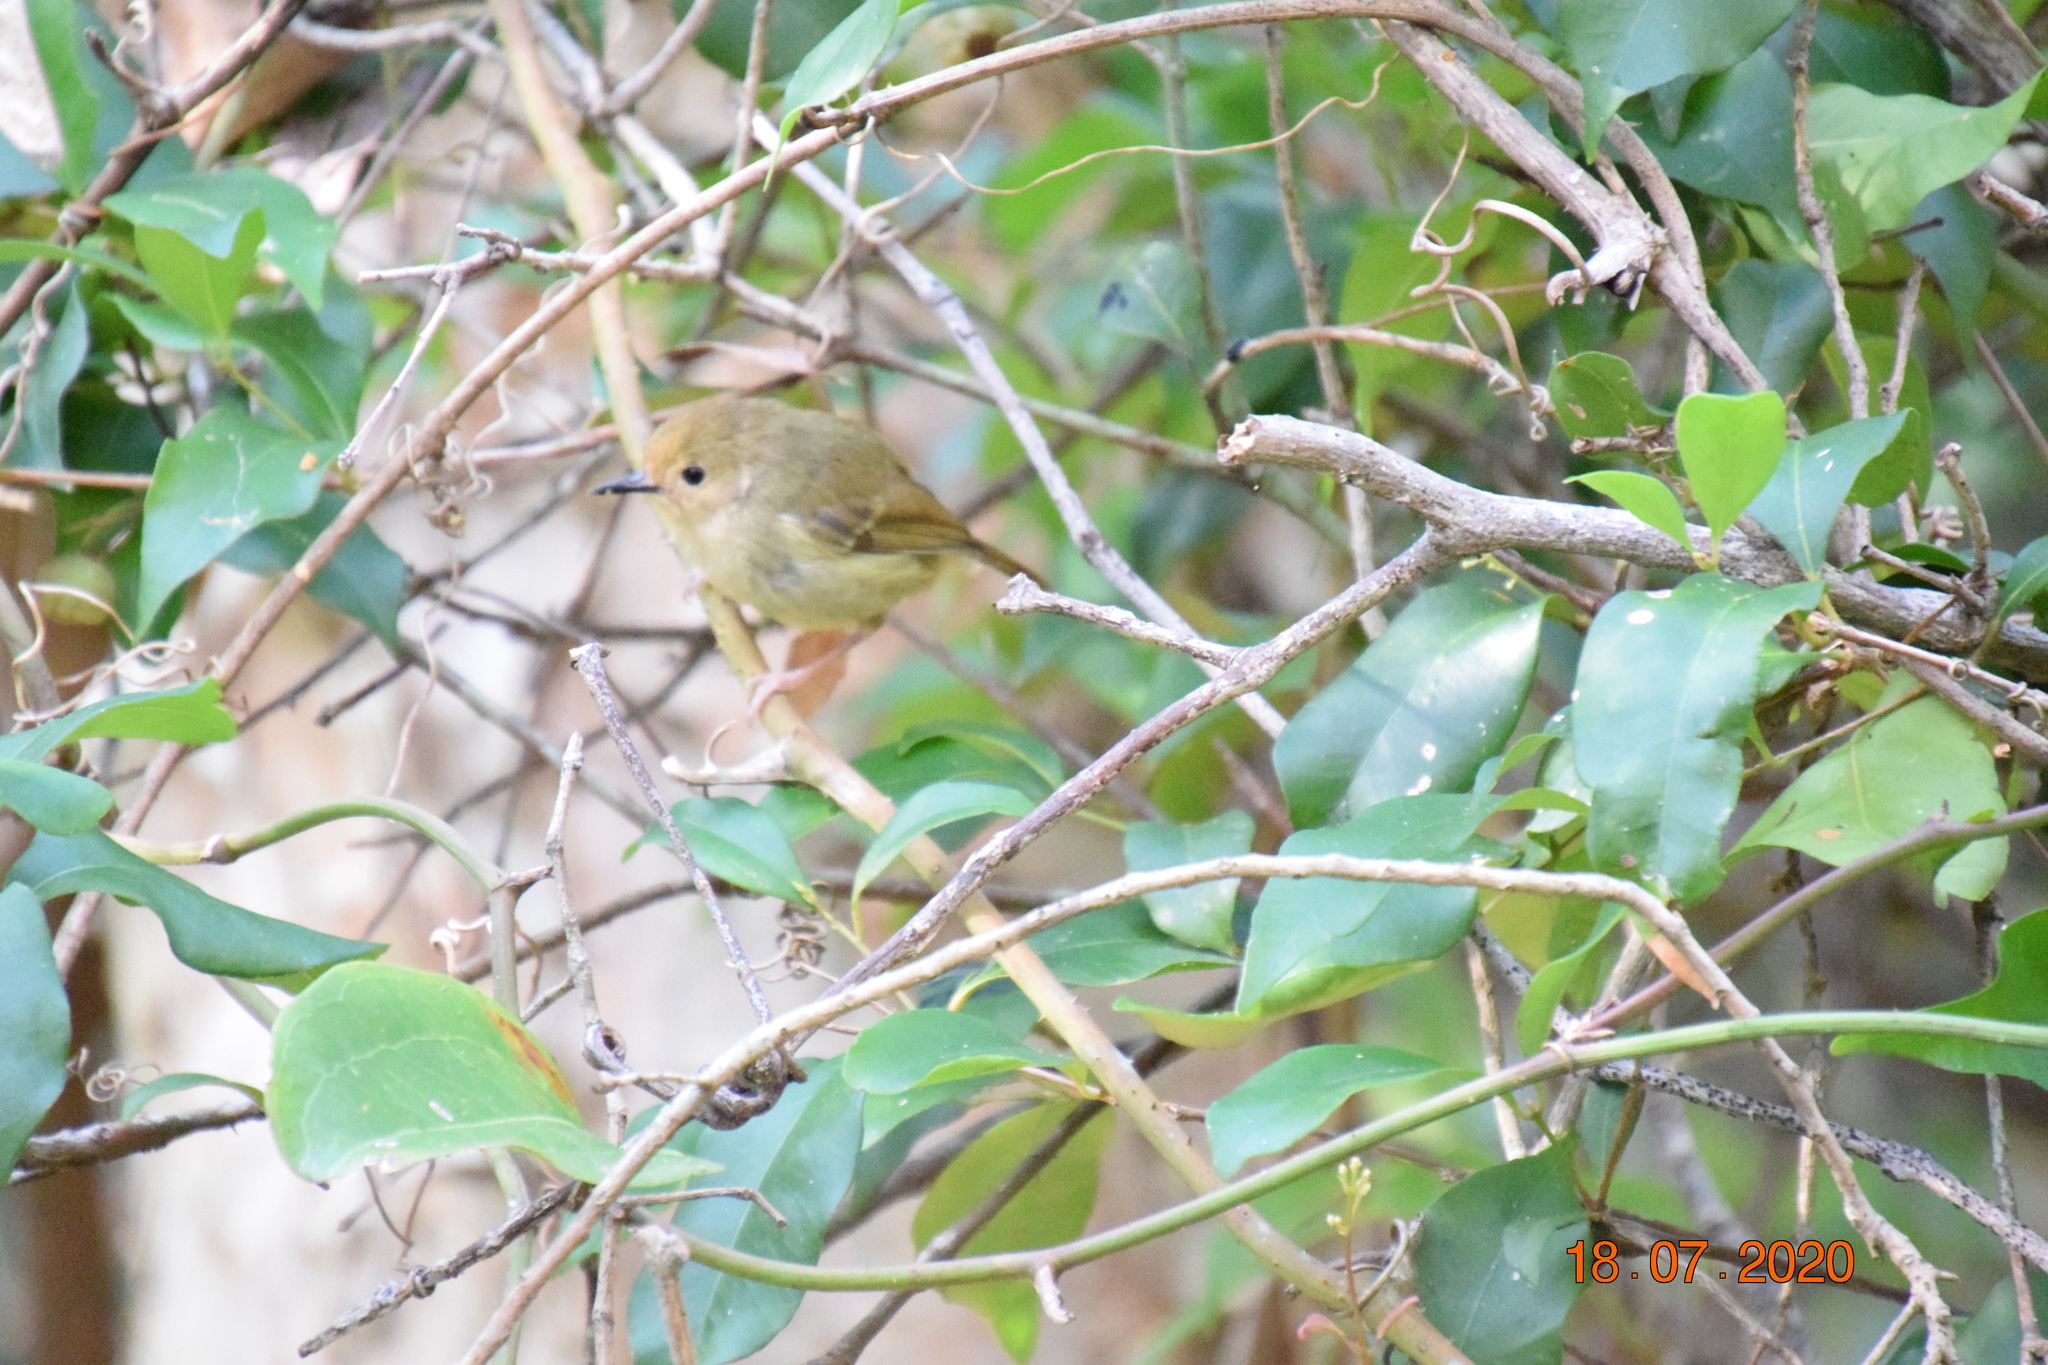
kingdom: Animalia
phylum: Chordata
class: Aves
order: Passeriformes
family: Acanthizidae
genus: Sericornis
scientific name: Sericornis magnirostra
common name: Large-billed scrubwren
